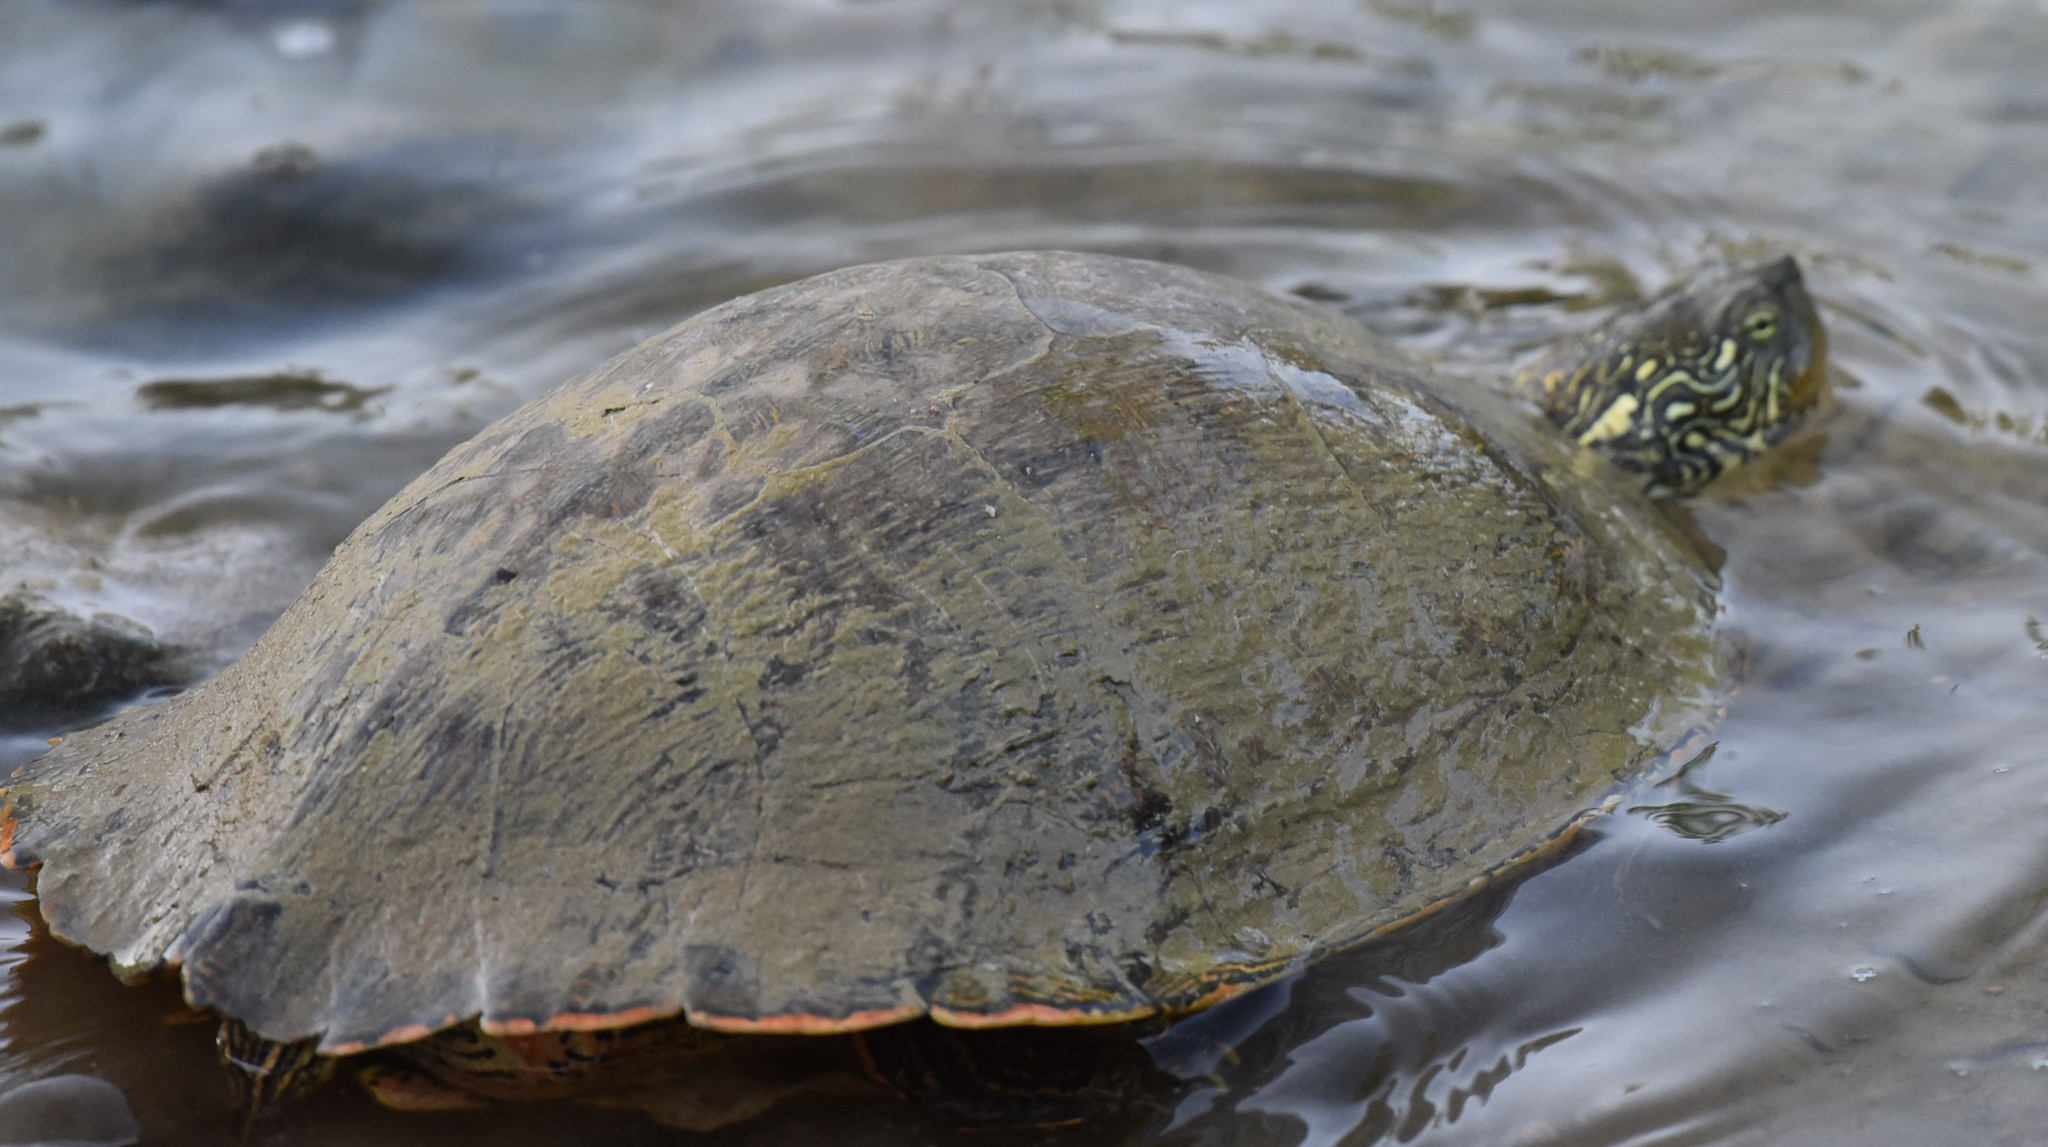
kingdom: Animalia
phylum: Chordata
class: Testudines
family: Emydidae
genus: Pseudemys
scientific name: Pseudemys texana
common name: Texas river cooter
